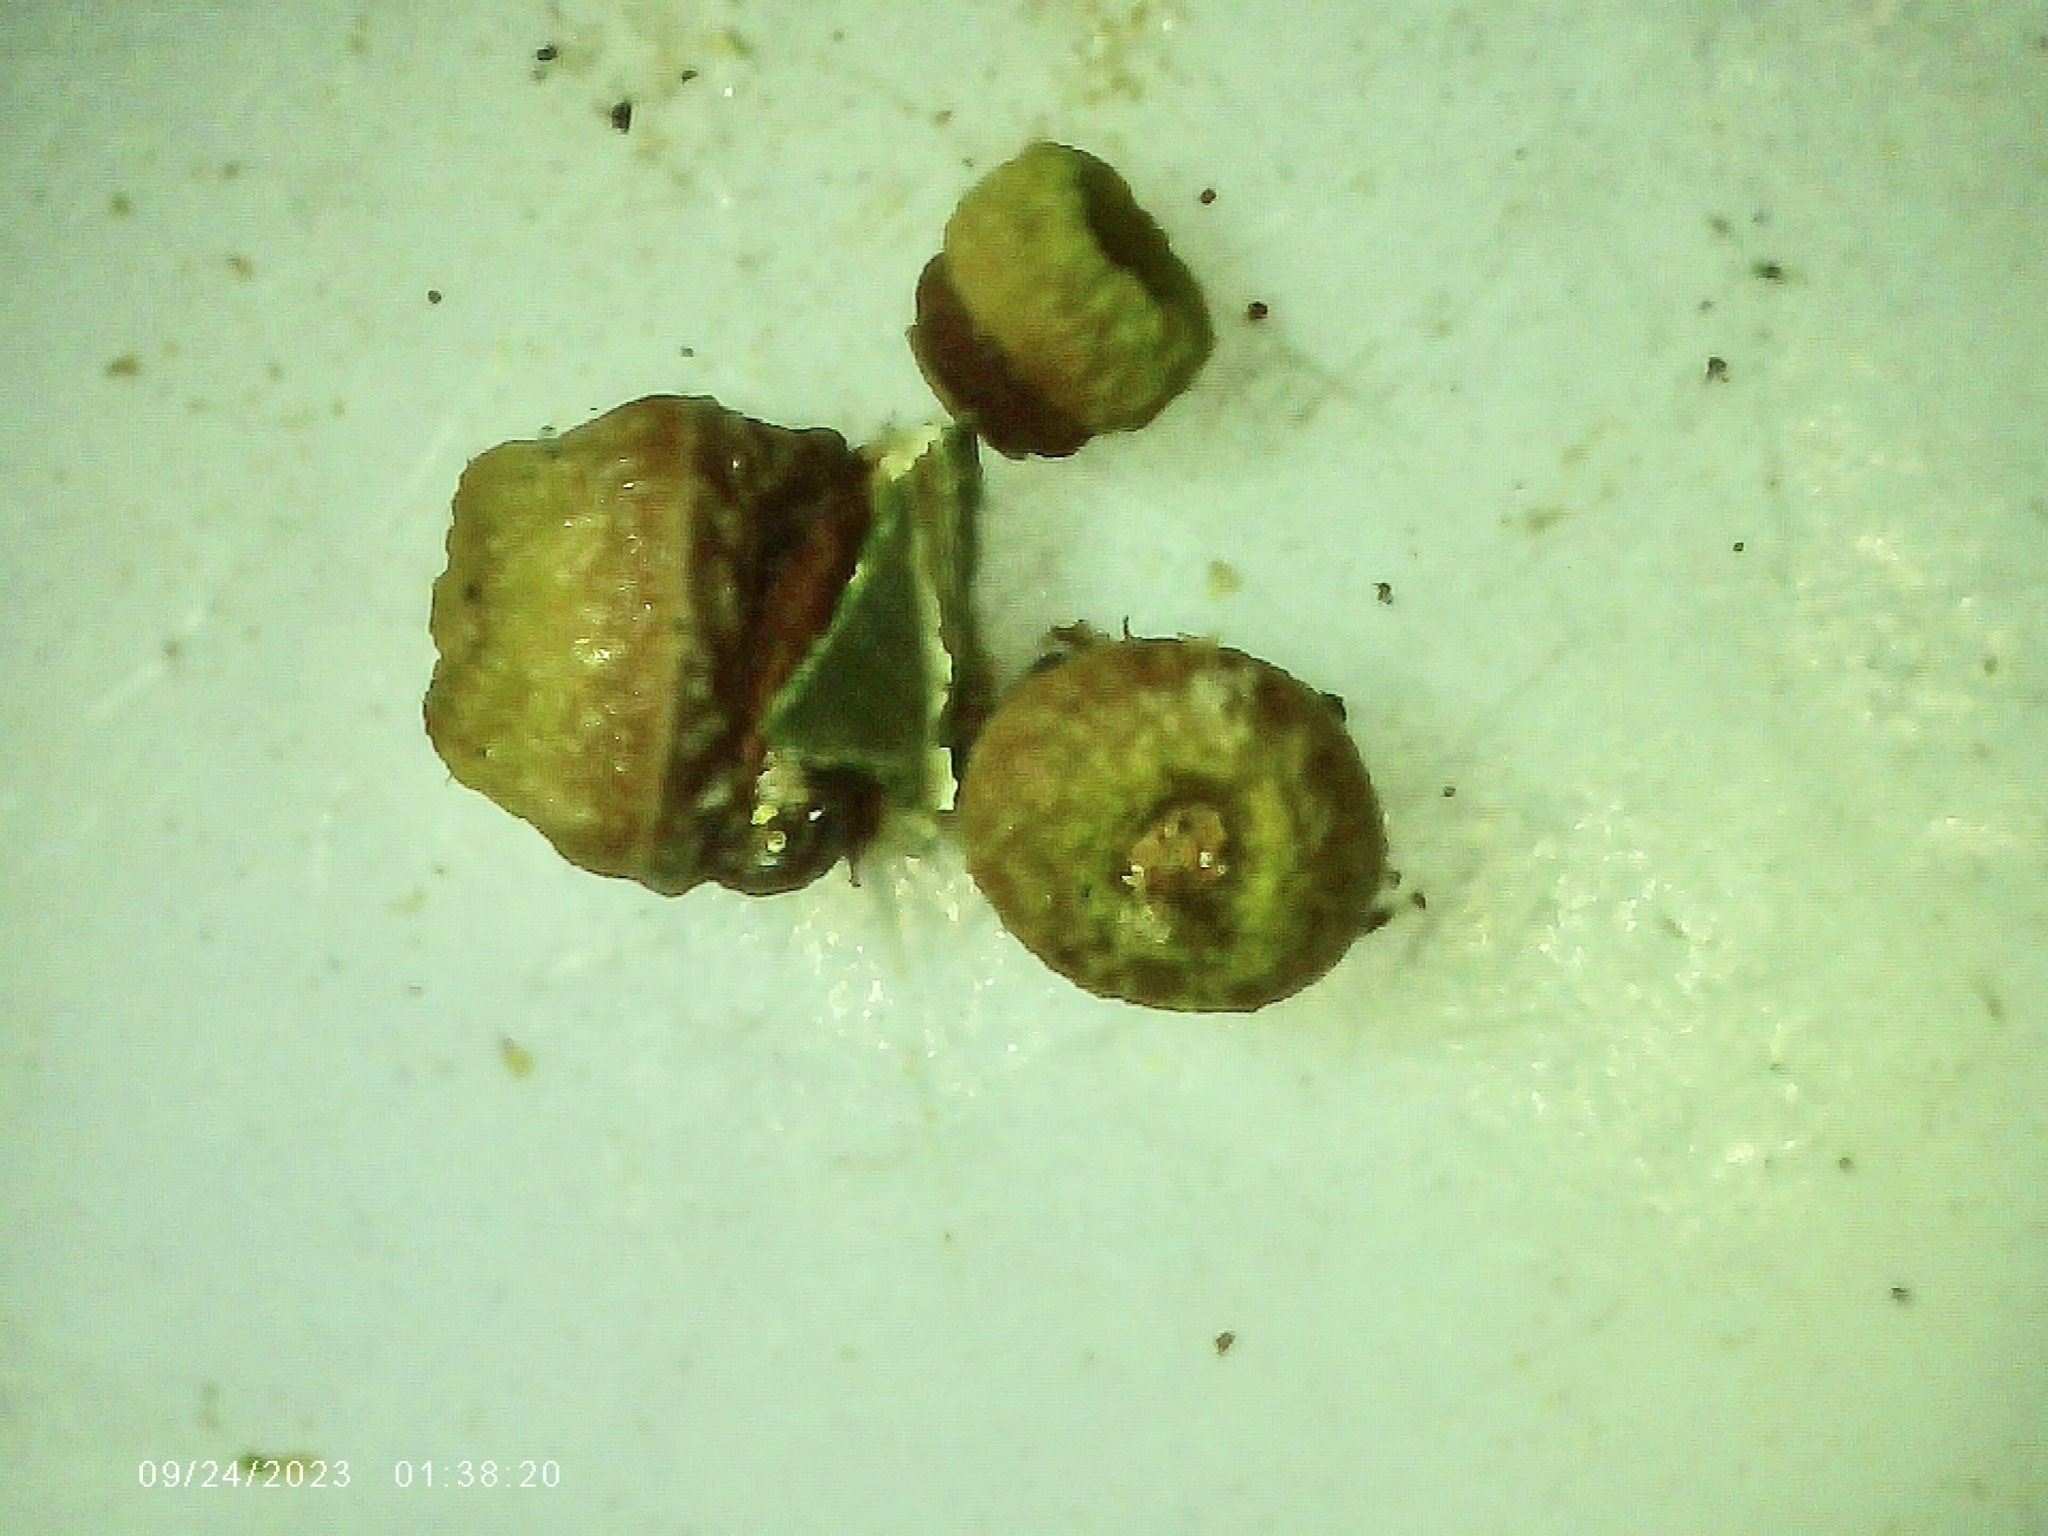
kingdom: Animalia
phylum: Arthropoda
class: Insecta
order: Hymenoptera
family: Cynipidae
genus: Kokkocynips
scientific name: Kokkocynips rileyi
